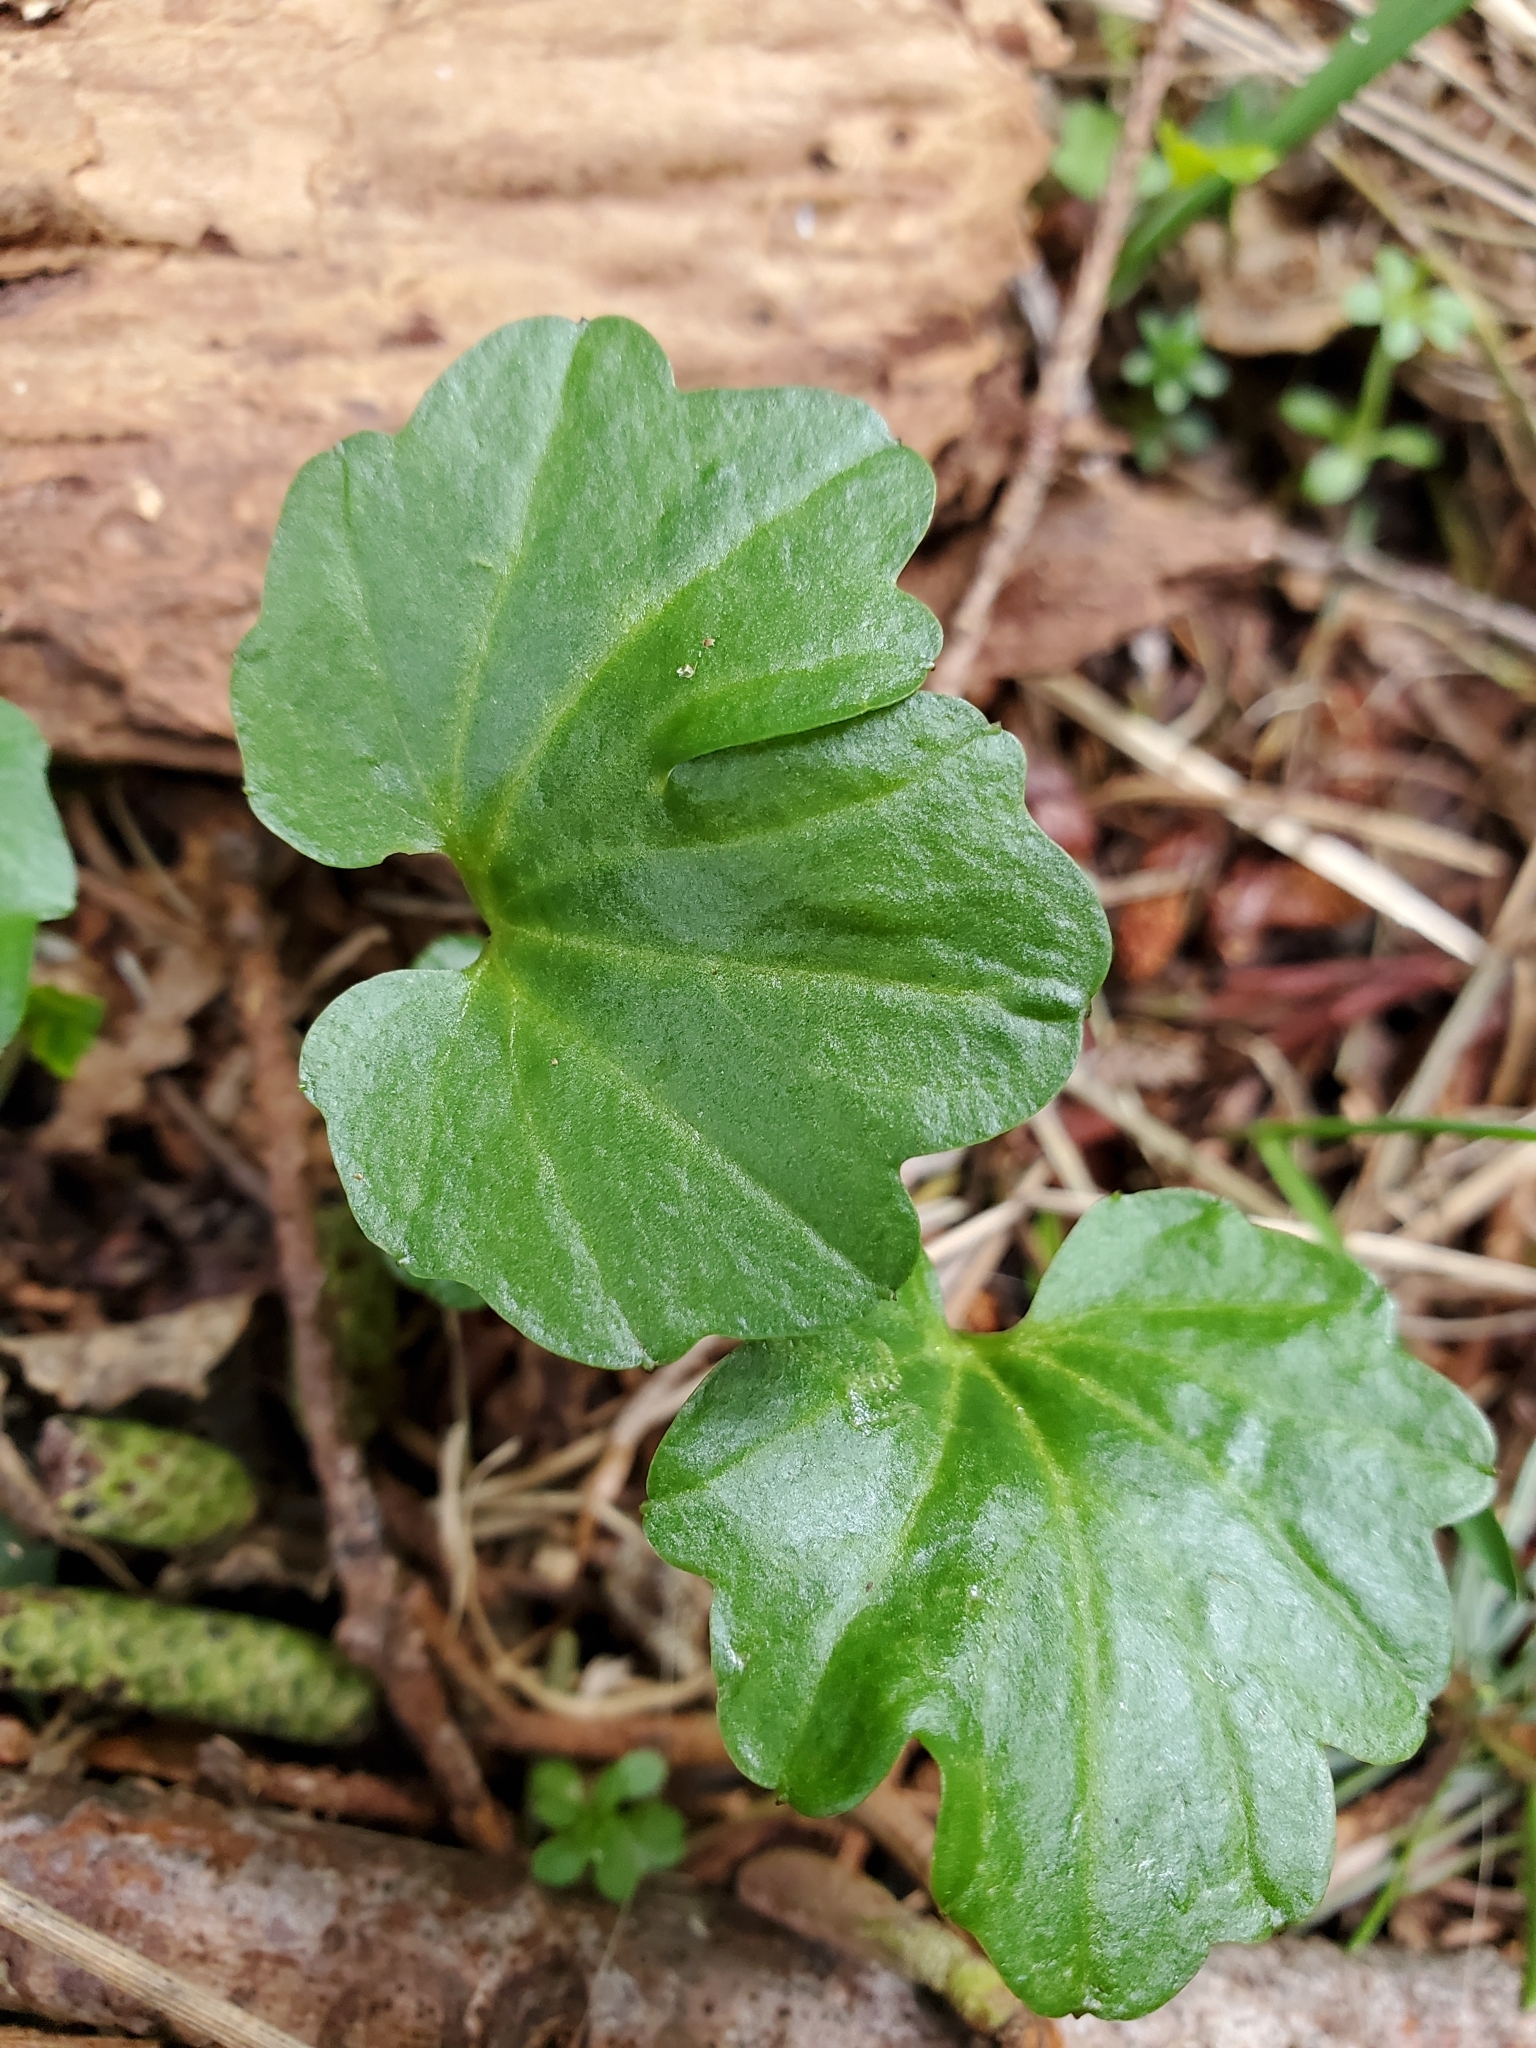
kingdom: Plantae
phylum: Tracheophyta
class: Magnoliopsida
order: Brassicales
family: Brassicaceae
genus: Cardamine
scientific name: Cardamine nuttallii
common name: Nuttall's toothwort
